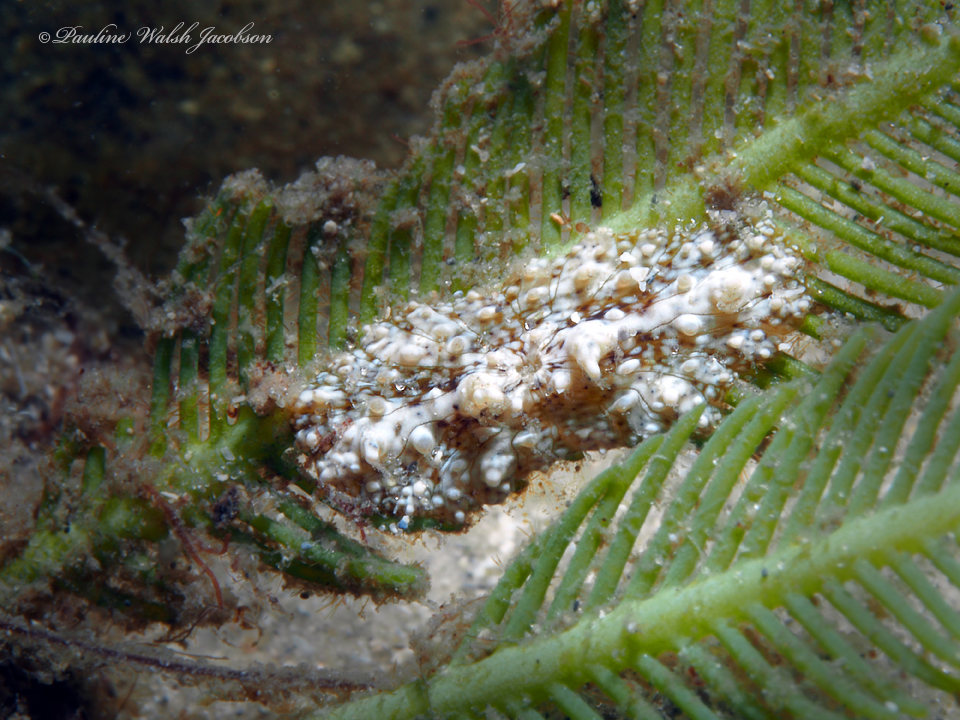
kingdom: Animalia
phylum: Cnidaria
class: Anthozoa
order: Actiniaria
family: Boloceroididae
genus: Bunodeopsis
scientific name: Bunodeopsis globulifera
